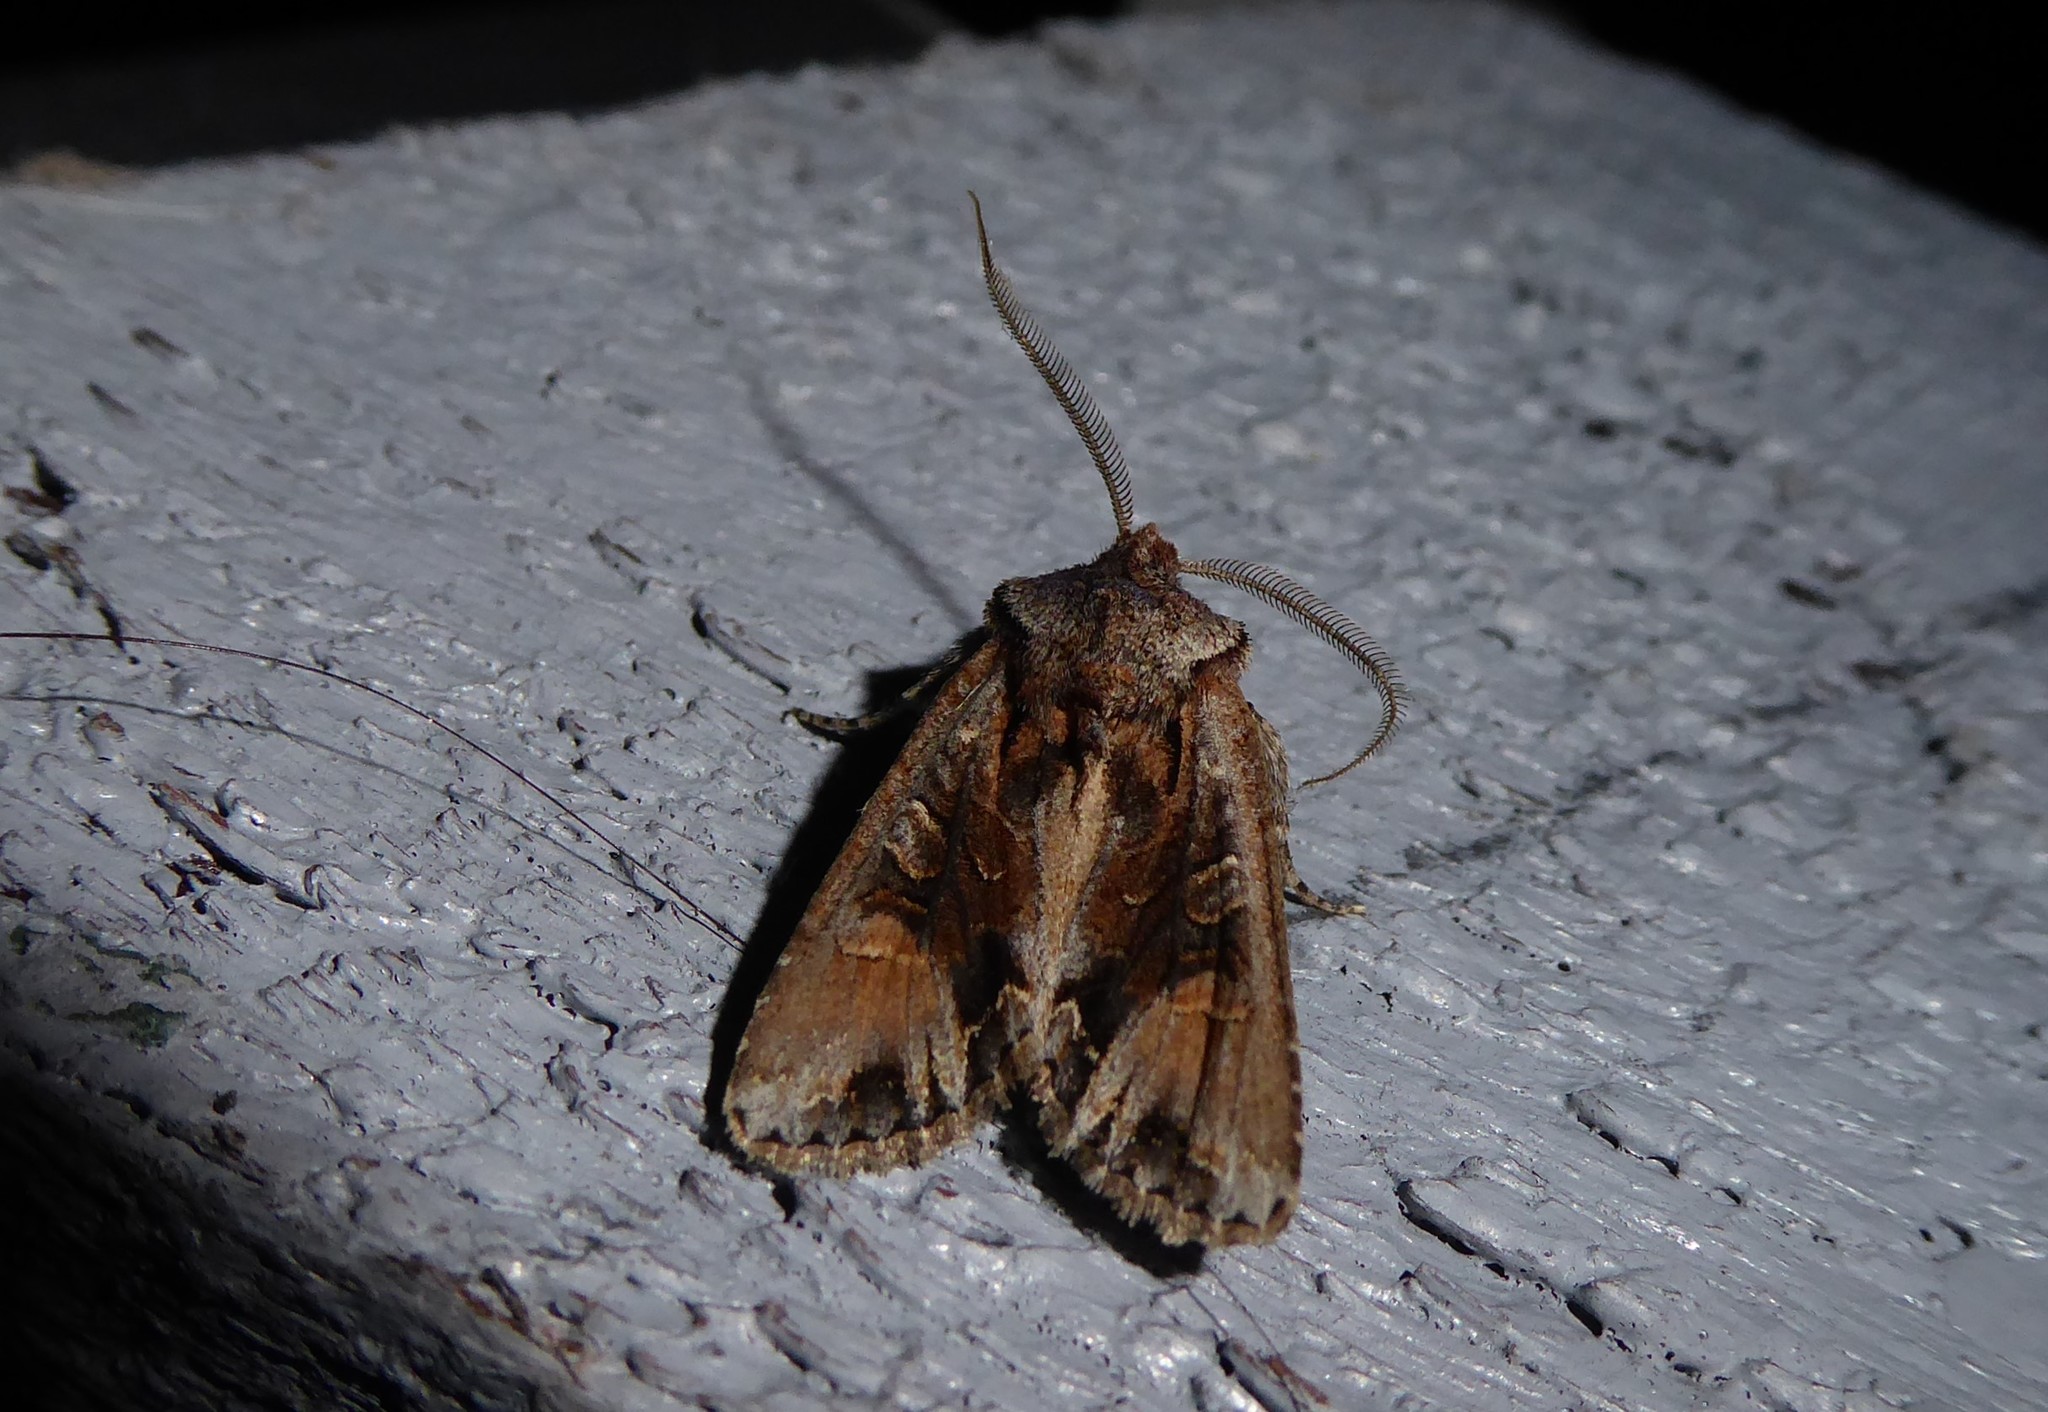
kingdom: Animalia
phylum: Arthropoda
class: Insecta
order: Lepidoptera
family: Noctuidae
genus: Ichneutica
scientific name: Ichneutica
